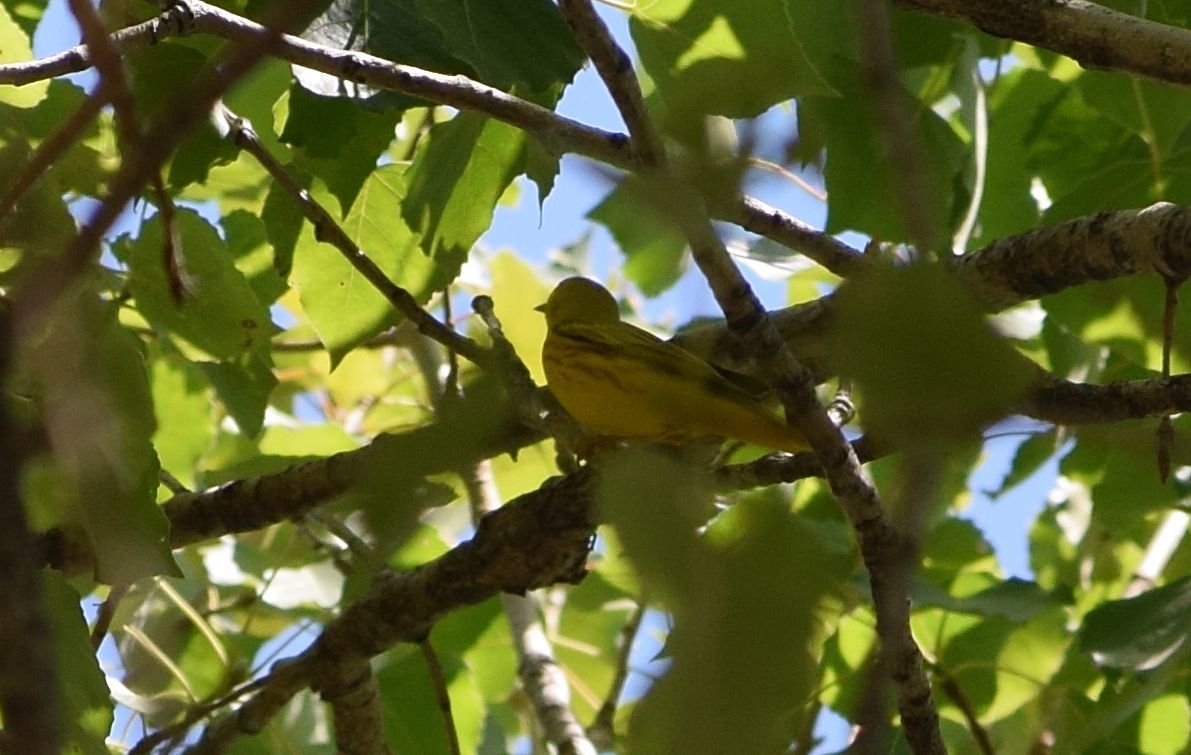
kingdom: Animalia
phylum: Chordata
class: Aves
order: Passeriformes
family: Parulidae
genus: Setophaga
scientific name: Setophaga petechia
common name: Yellow warbler
